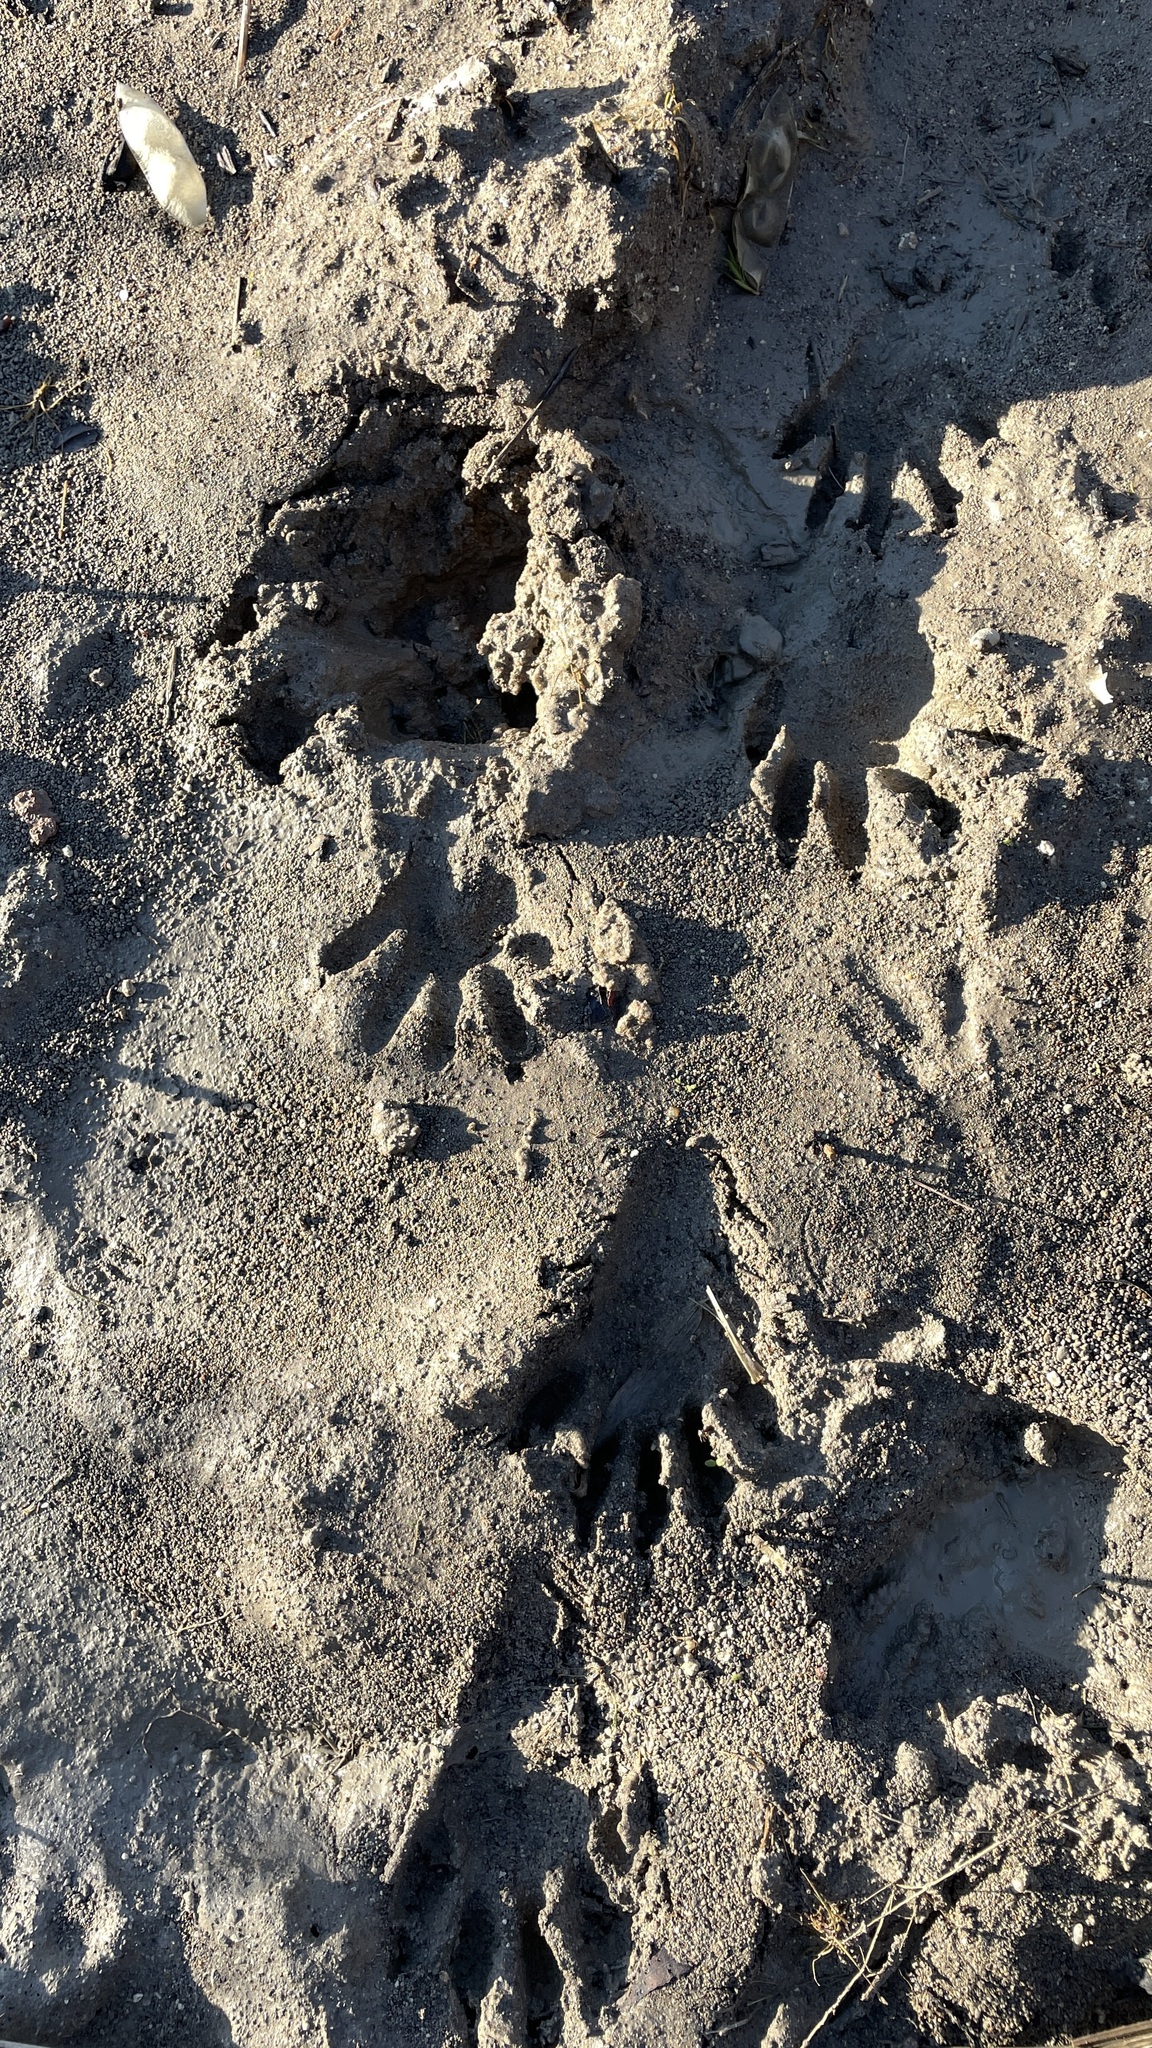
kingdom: Animalia
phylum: Chordata
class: Mammalia
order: Carnivora
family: Procyonidae
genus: Procyon
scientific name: Procyon lotor
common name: Raccoon
